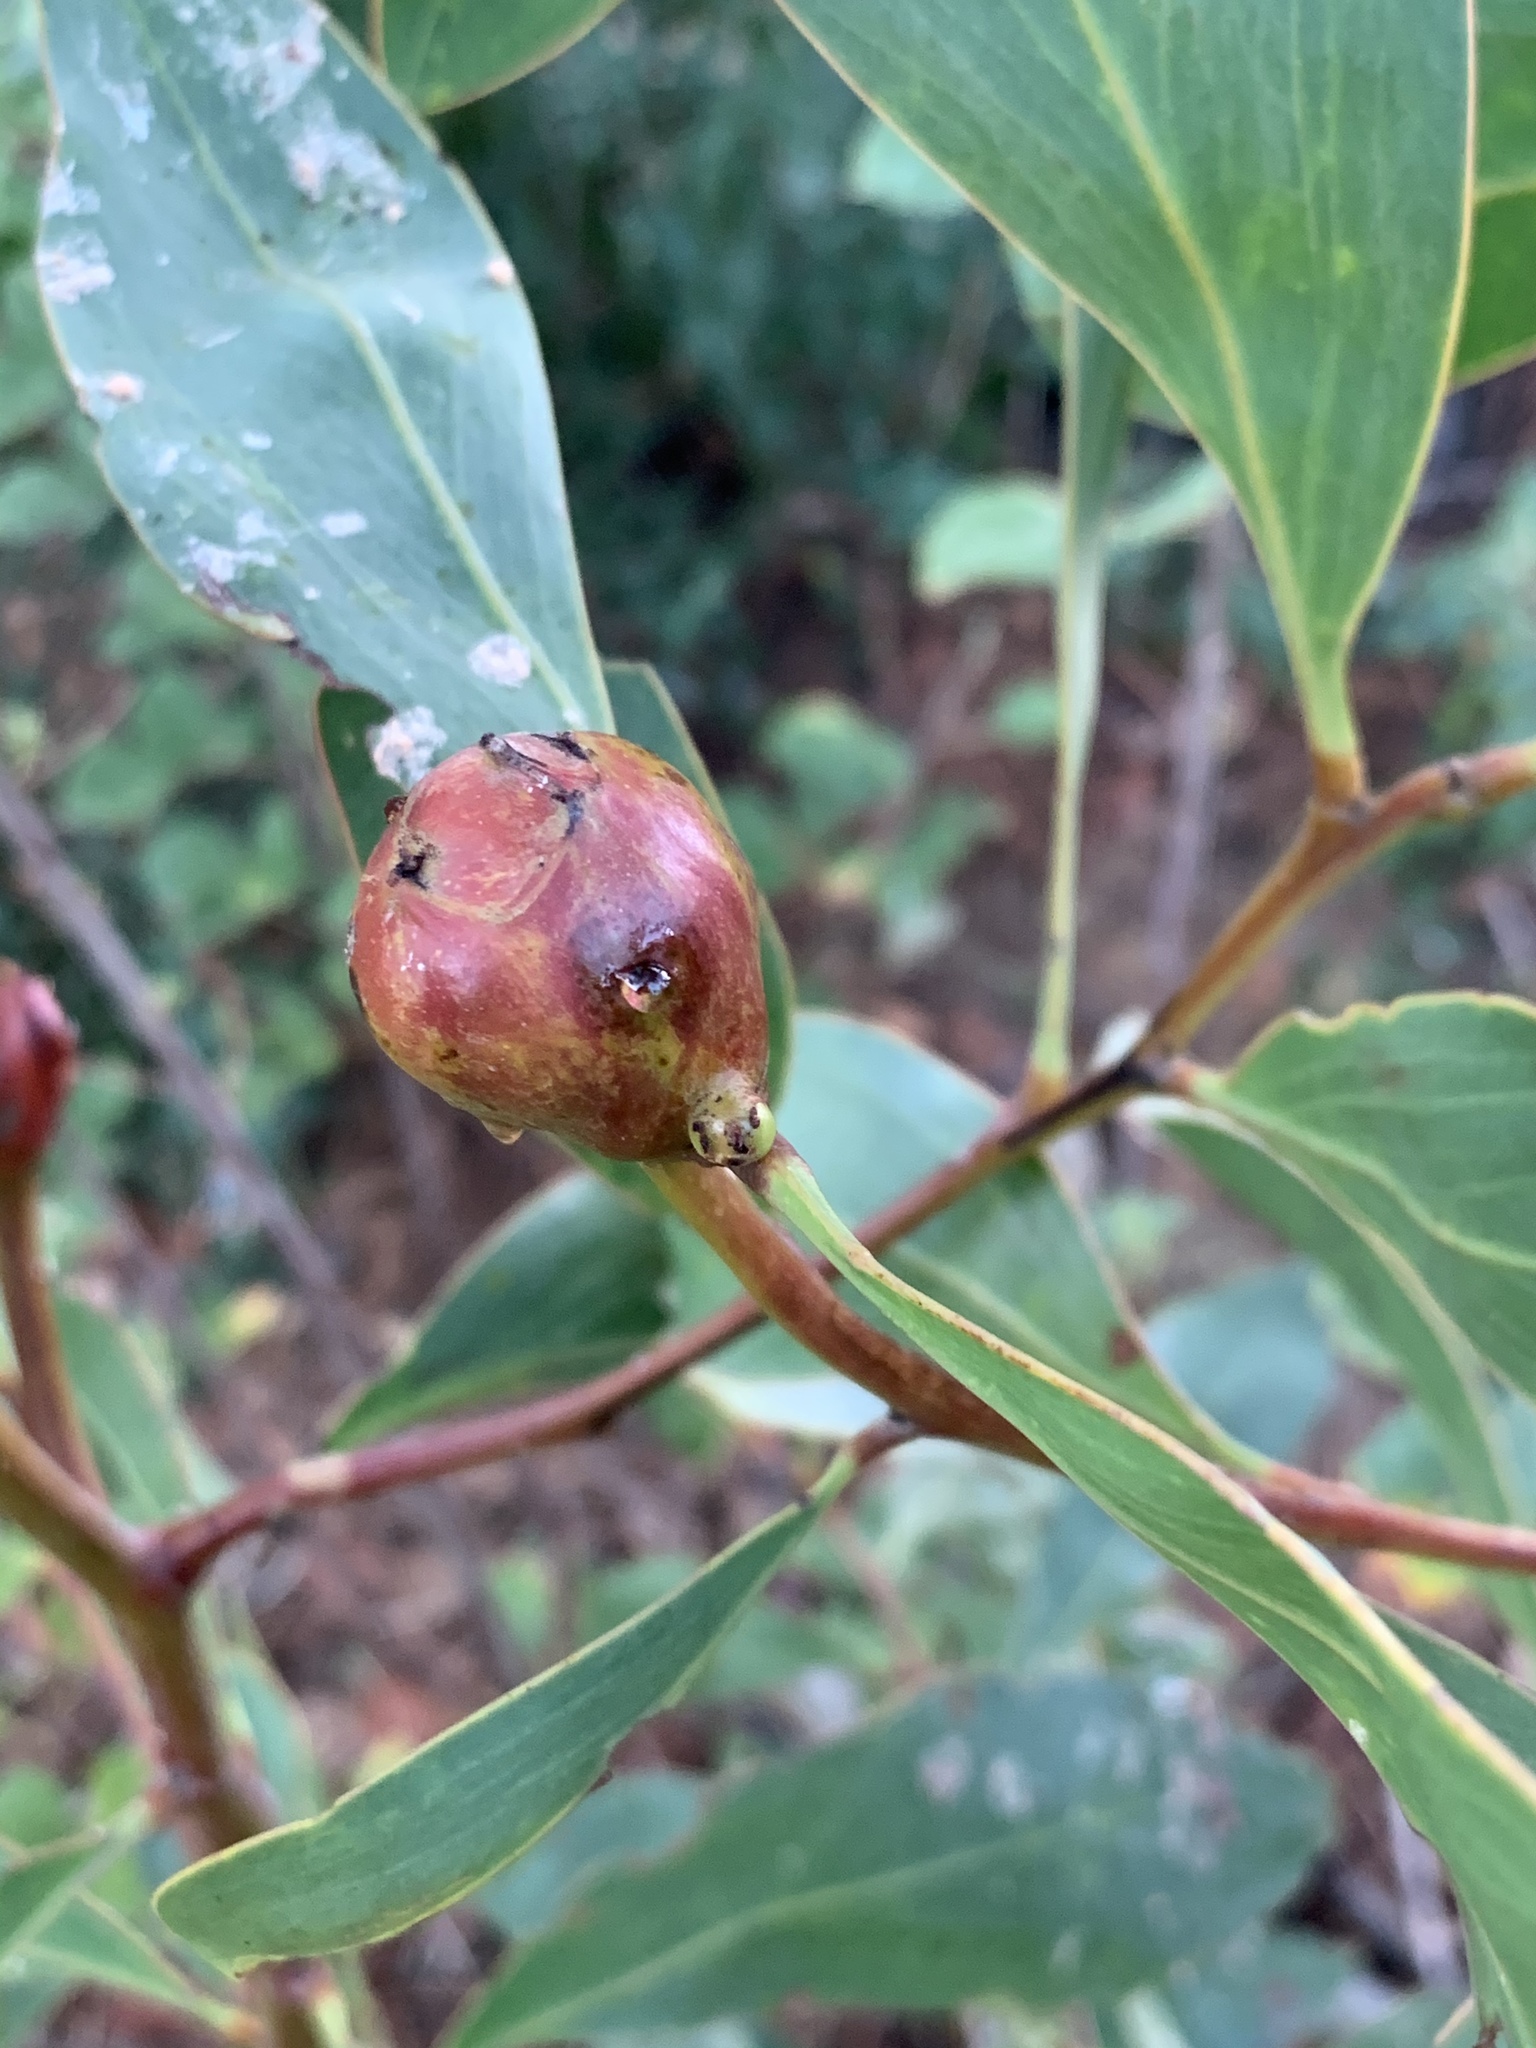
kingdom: Animalia
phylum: Arthropoda
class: Insecta
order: Hymenoptera
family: Pteromalidae
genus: Trichilogaster
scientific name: Trichilogaster signiventris
